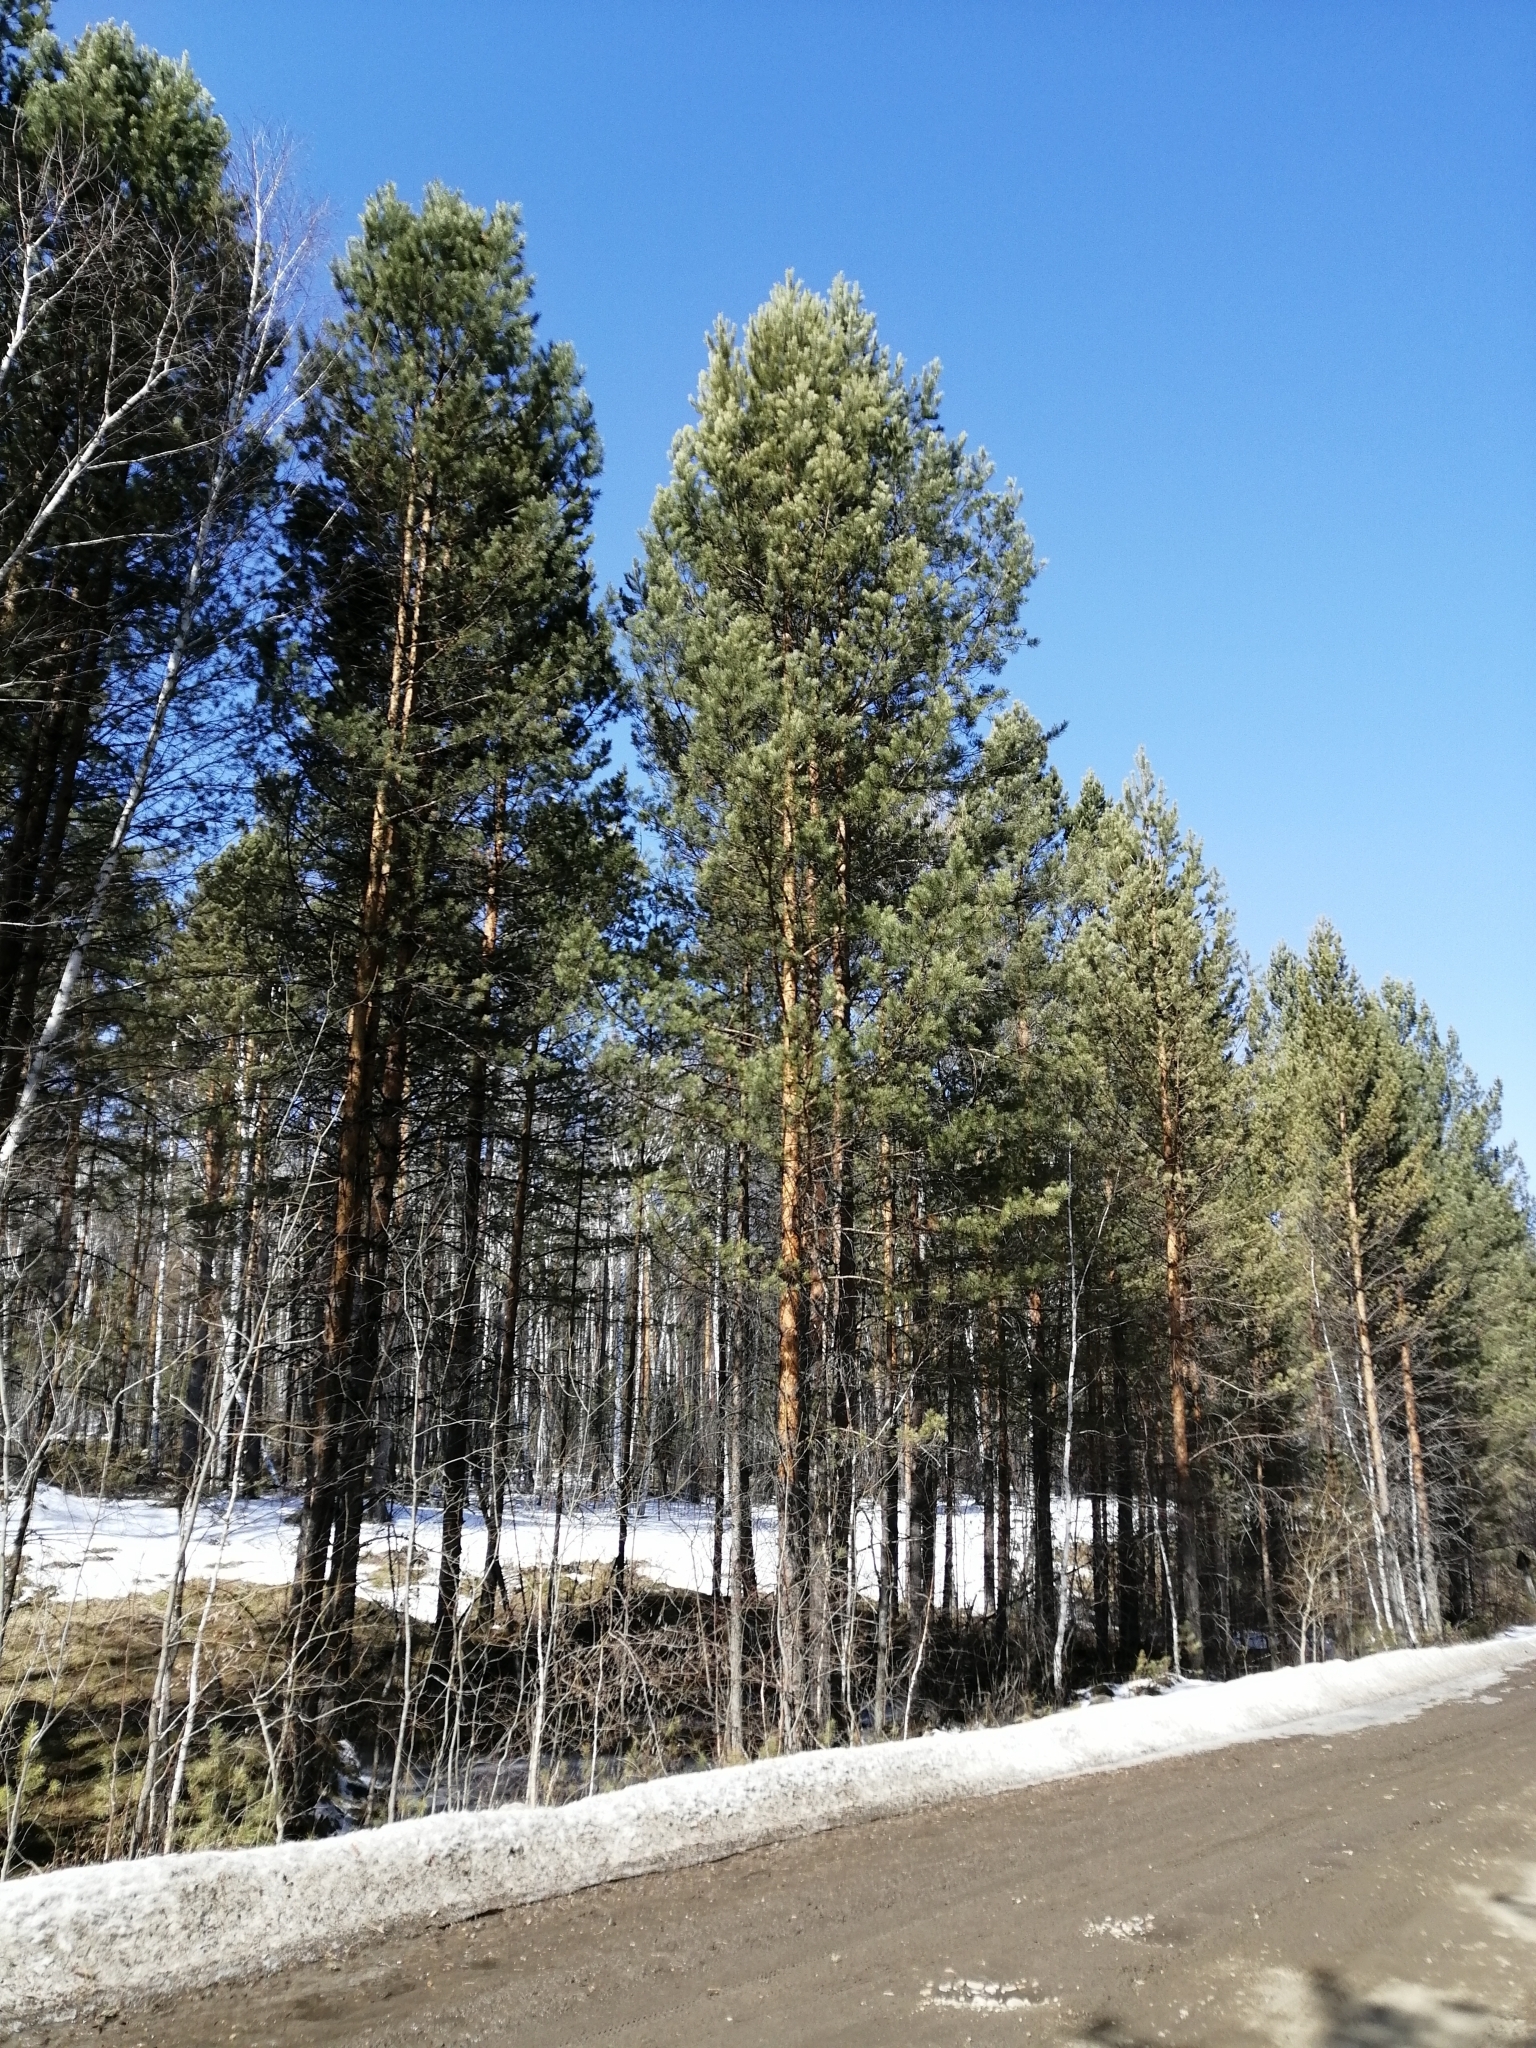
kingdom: Plantae
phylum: Tracheophyta
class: Pinopsida
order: Pinales
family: Pinaceae
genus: Pinus
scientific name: Pinus sylvestris
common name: Scots pine
